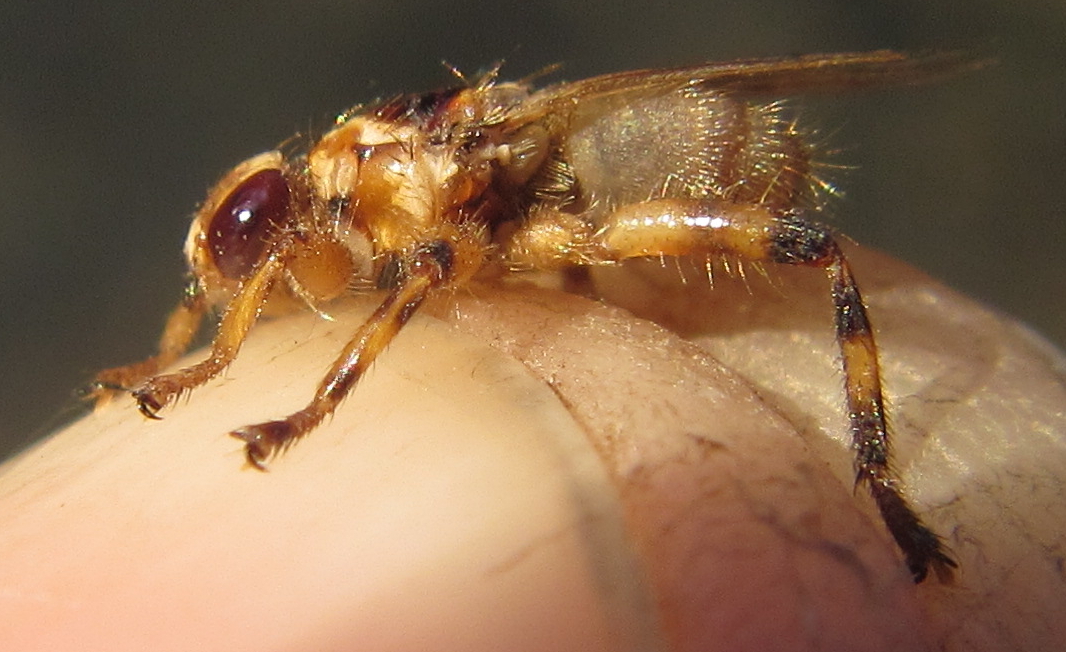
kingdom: Animalia
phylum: Arthropoda
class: Insecta
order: Diptera
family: Hippoboscidae
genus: Hippobosca
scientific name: Hippobosca longipennis
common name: Louse fly
